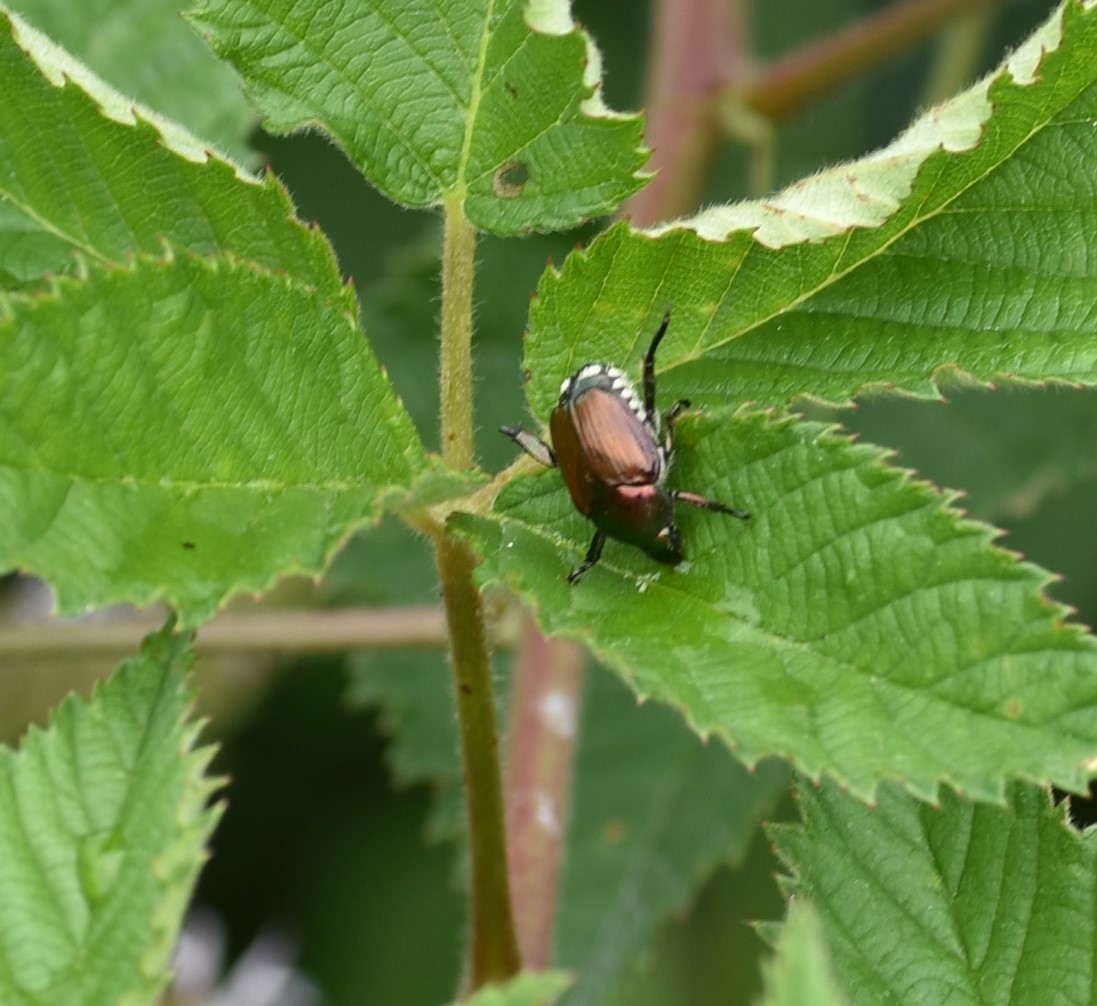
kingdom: Animalia
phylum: Arthropoda
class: Insecta
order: Coleoptera
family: Scarabaeidae
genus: Popillia
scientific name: Popillia japonica
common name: Japanese beetle
